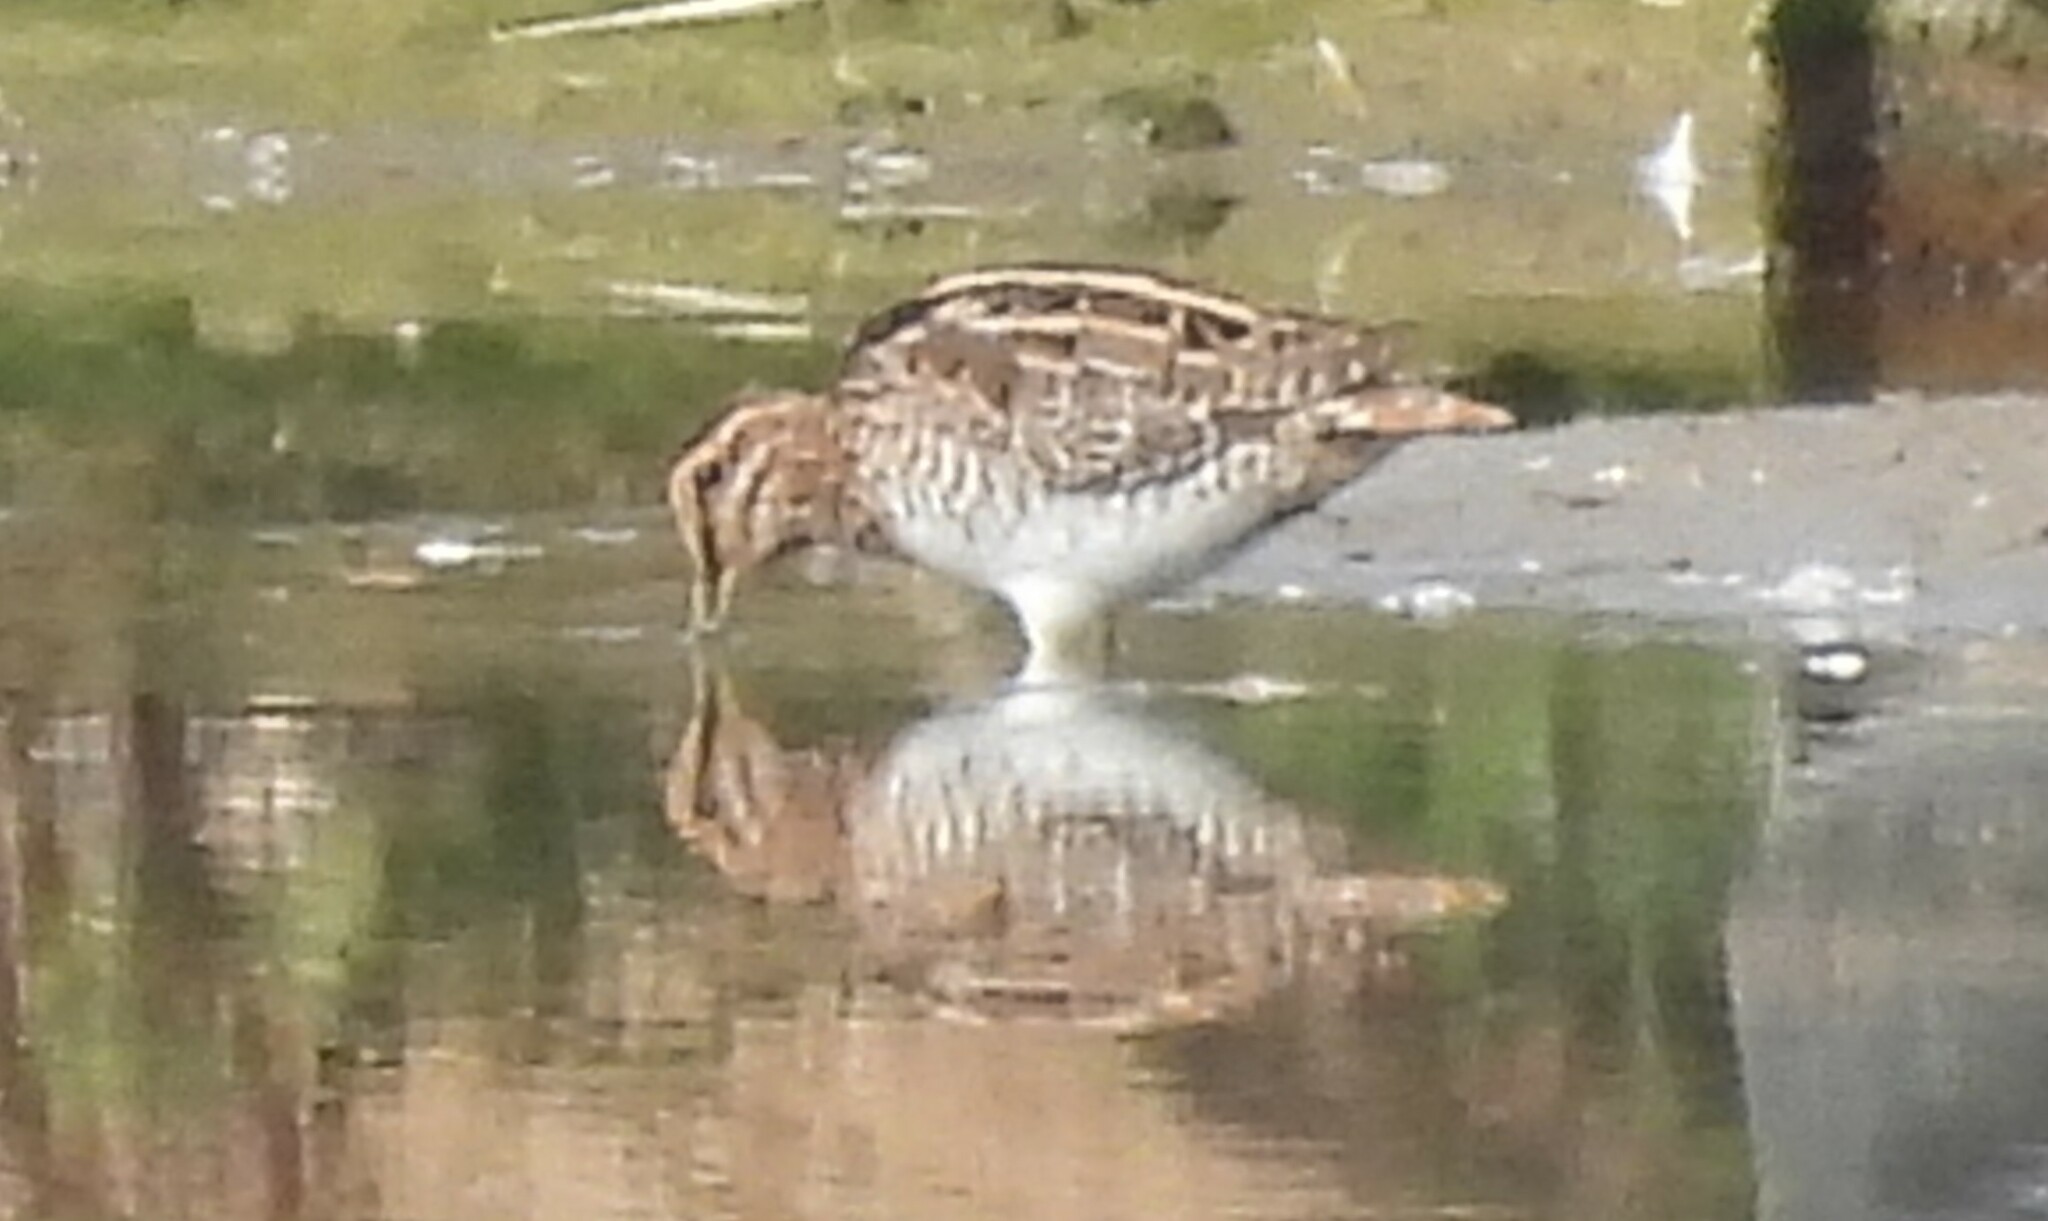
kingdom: Animalia
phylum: Chordata
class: Aves
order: Charadriiformes
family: Scolopacidae
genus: Gallinago
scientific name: Gallinago gallinago
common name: Common snipe
